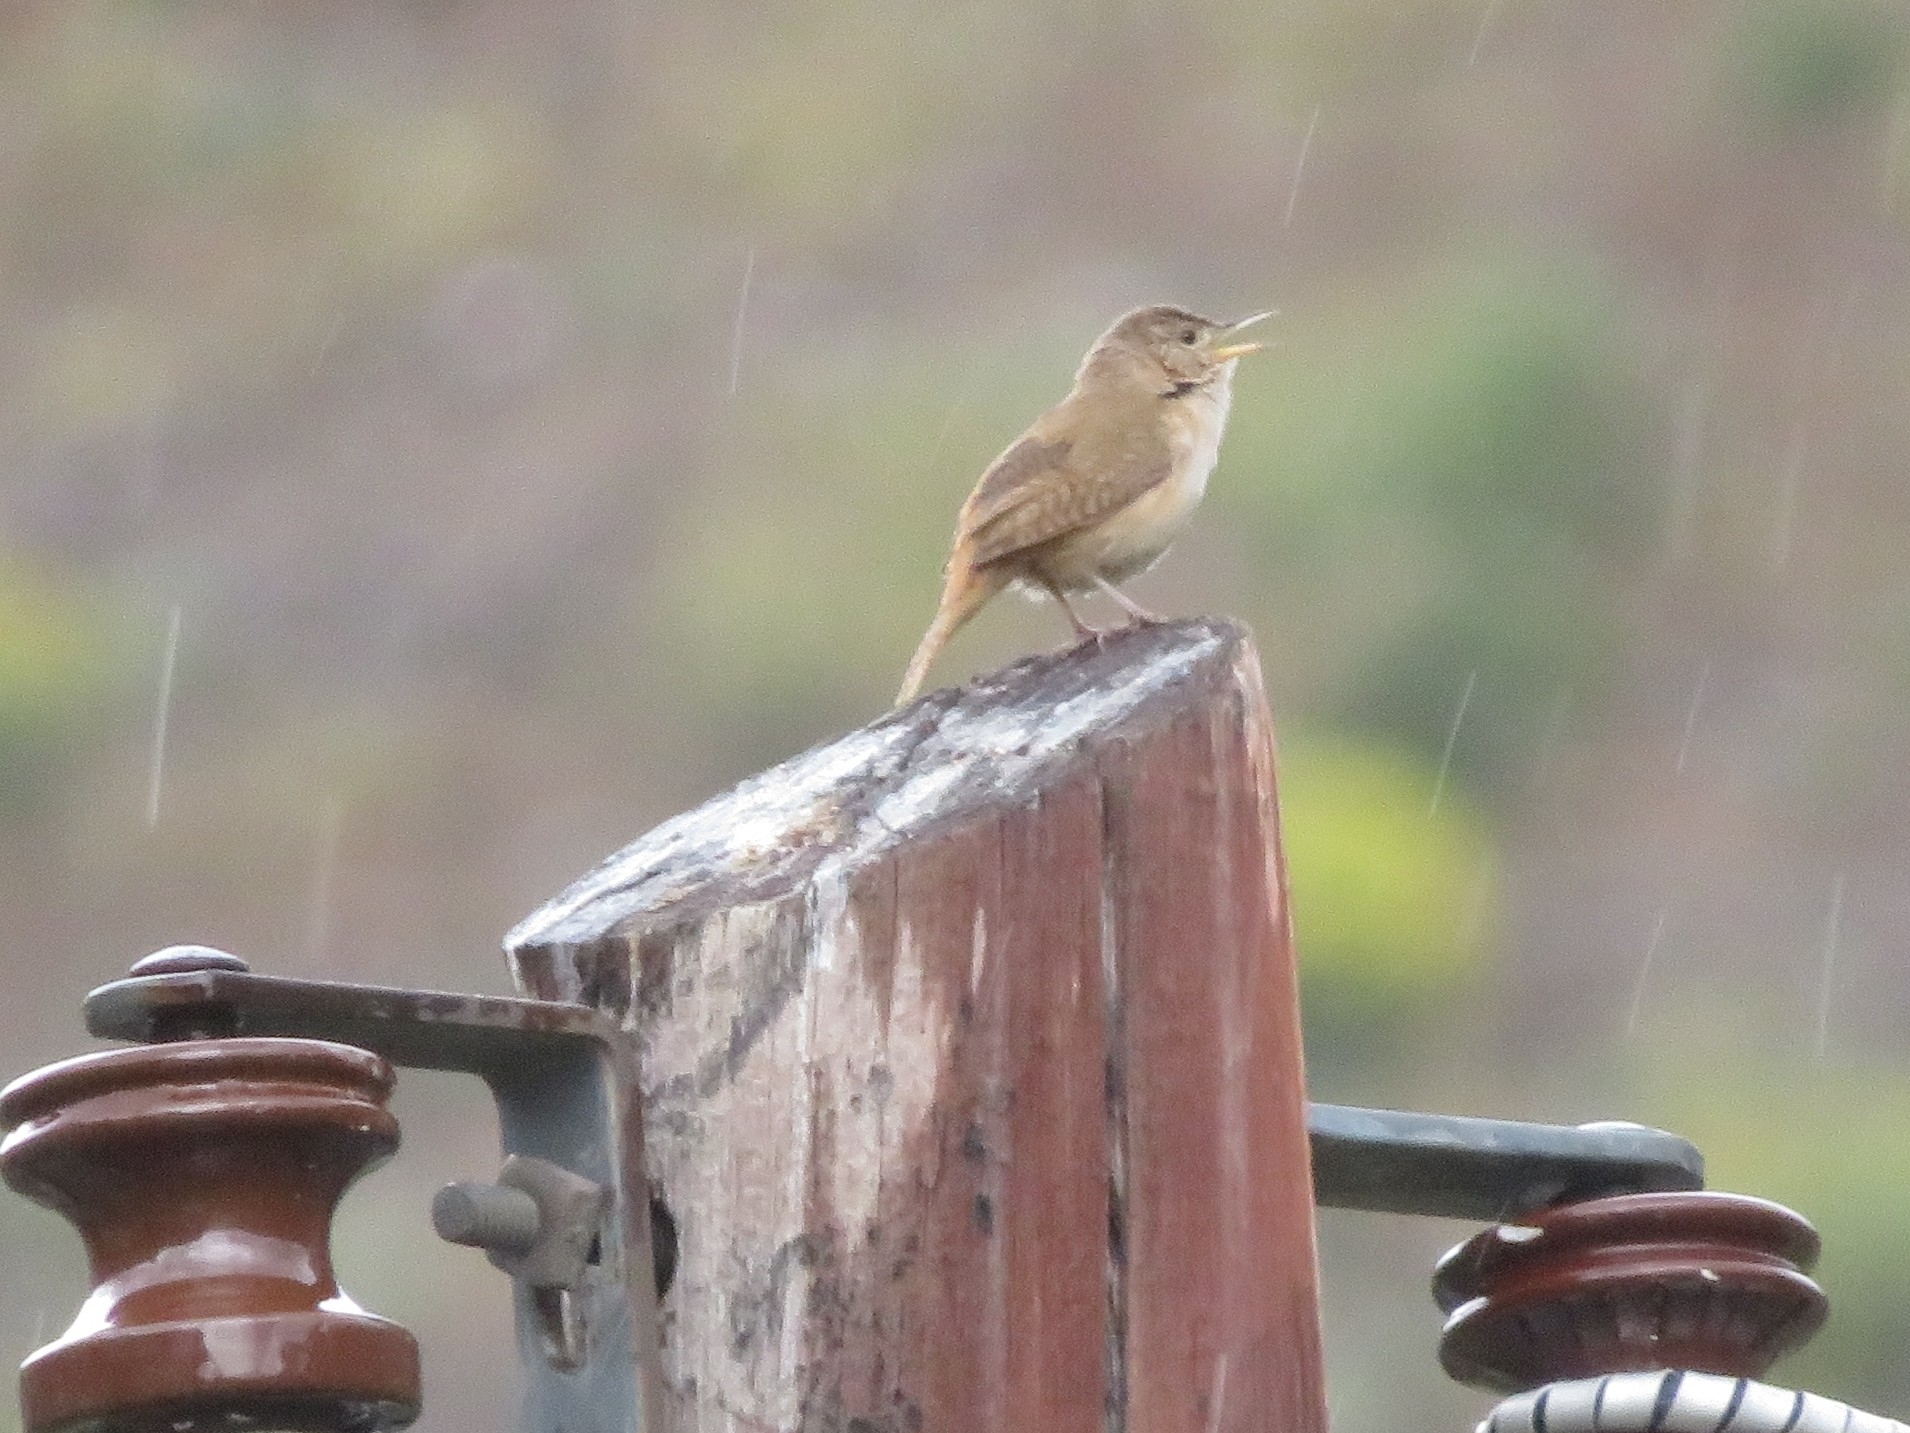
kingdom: Animalia
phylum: Chordata
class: Aves
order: Passeriformes
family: Troglodytidae
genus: Troglodytes
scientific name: Troglodytes aedon
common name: House wren
